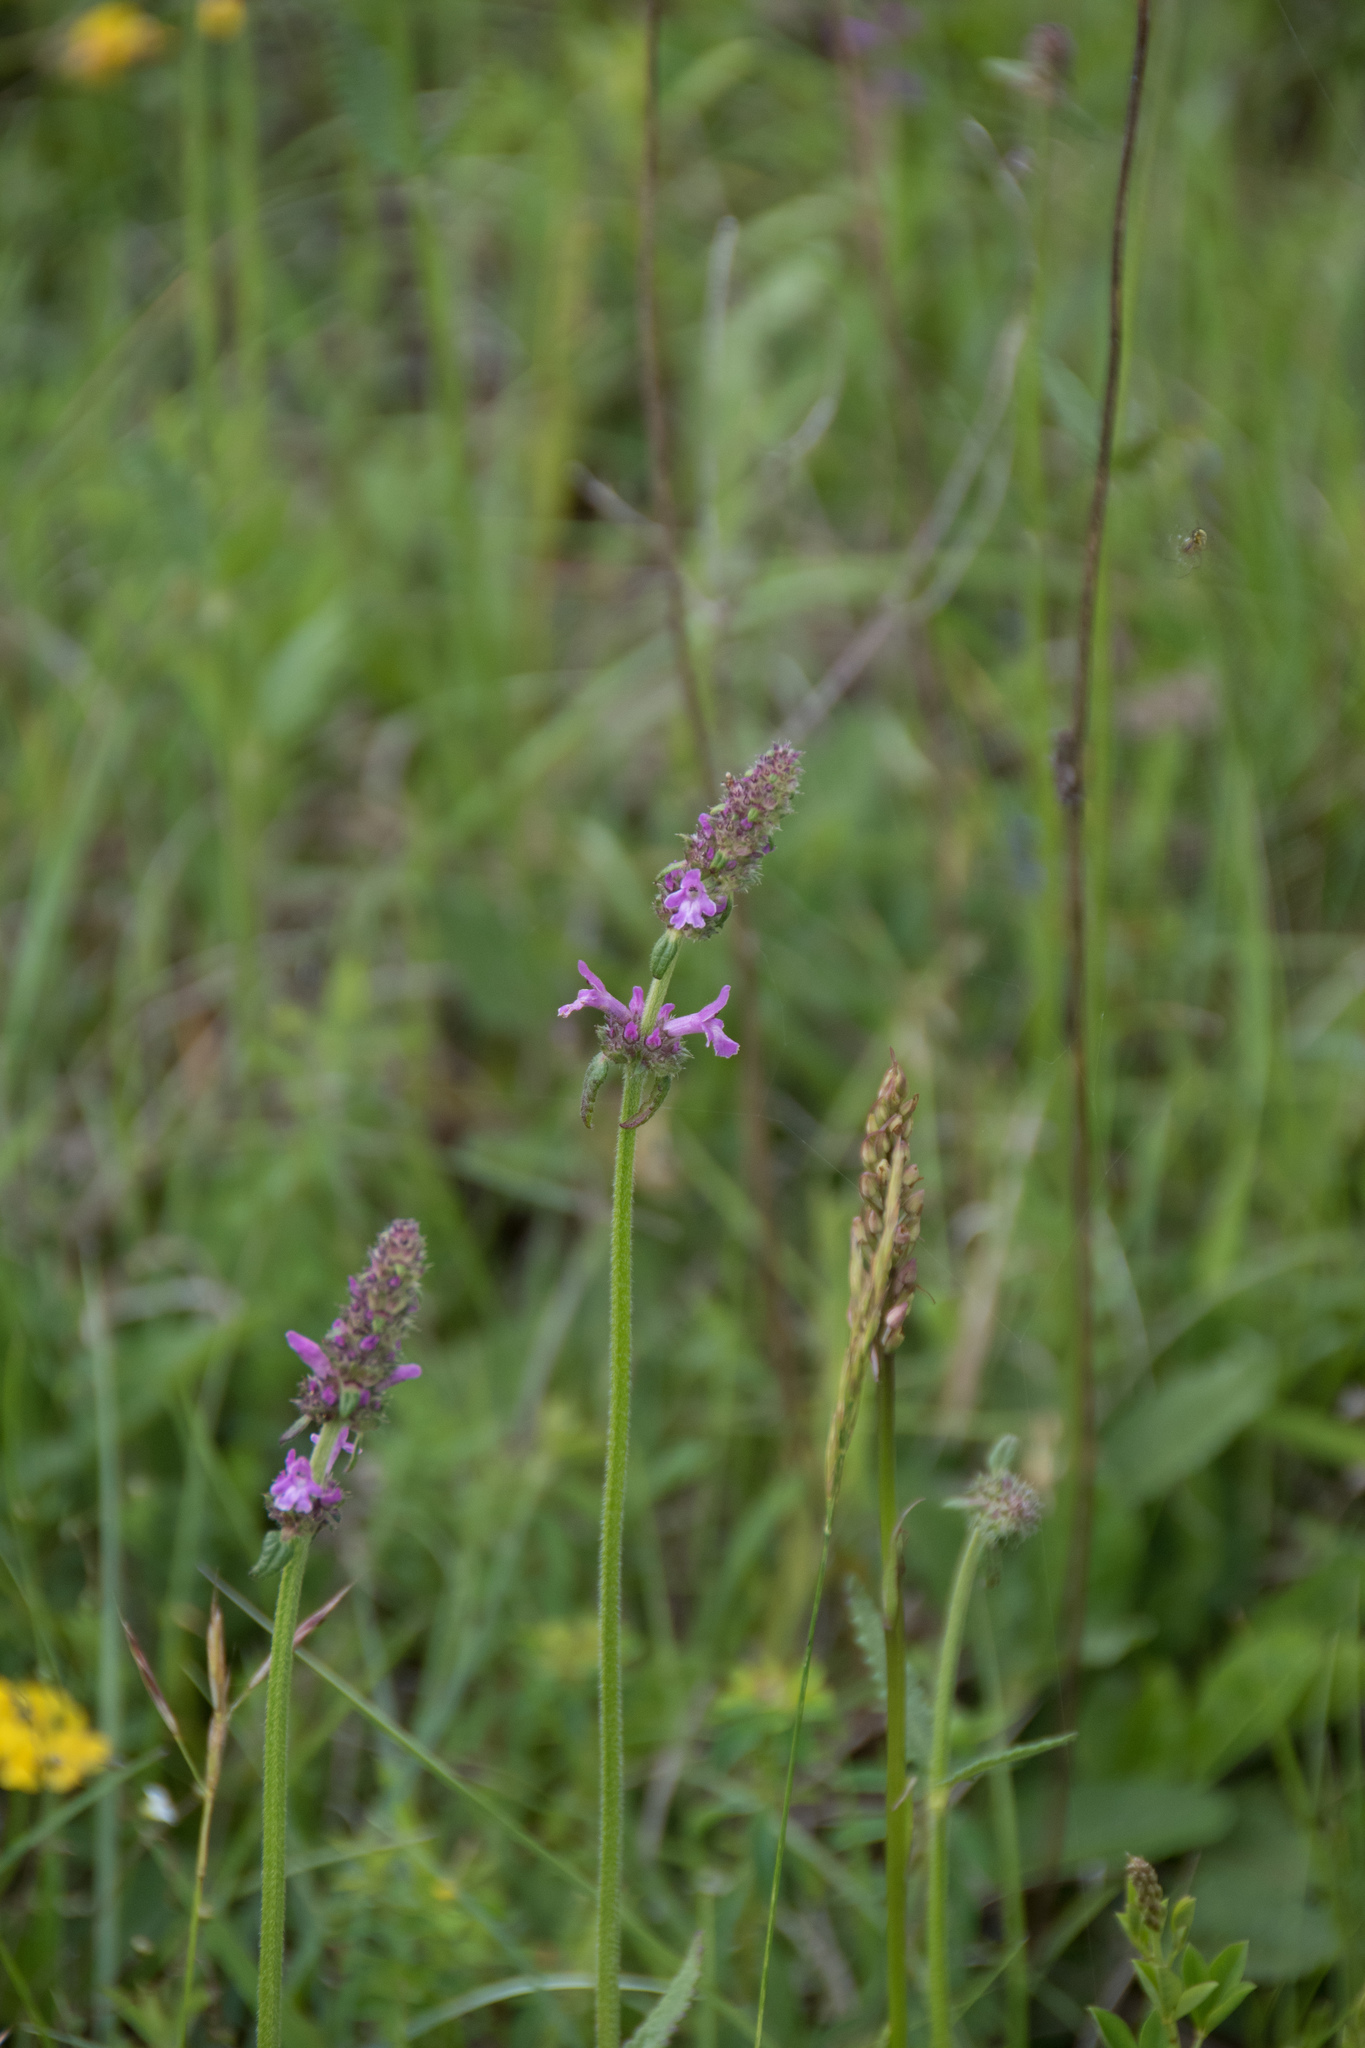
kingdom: Plantae
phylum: Tracheophyta
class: Magnoliopsida
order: Lamiales
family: Lamiaceae
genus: Betonica
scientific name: Betonica officinalis
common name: Bishop's-wort
